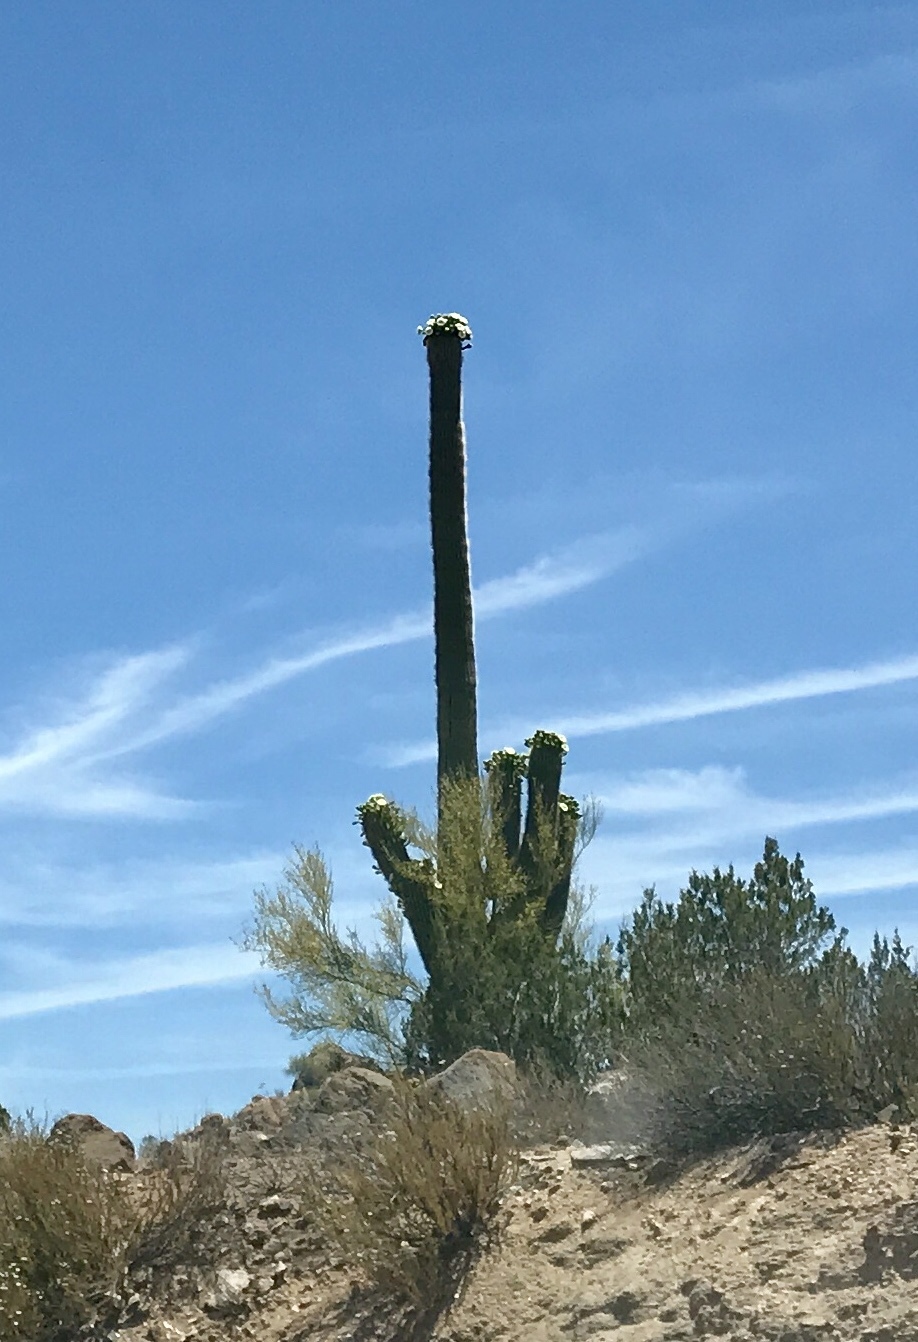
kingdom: Plantae
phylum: Tracheophyta
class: Magnoliopsida
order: Caryophyllales
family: Cactaceae
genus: Carnegiea
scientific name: Carnegiea gigantea
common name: Saguaro
